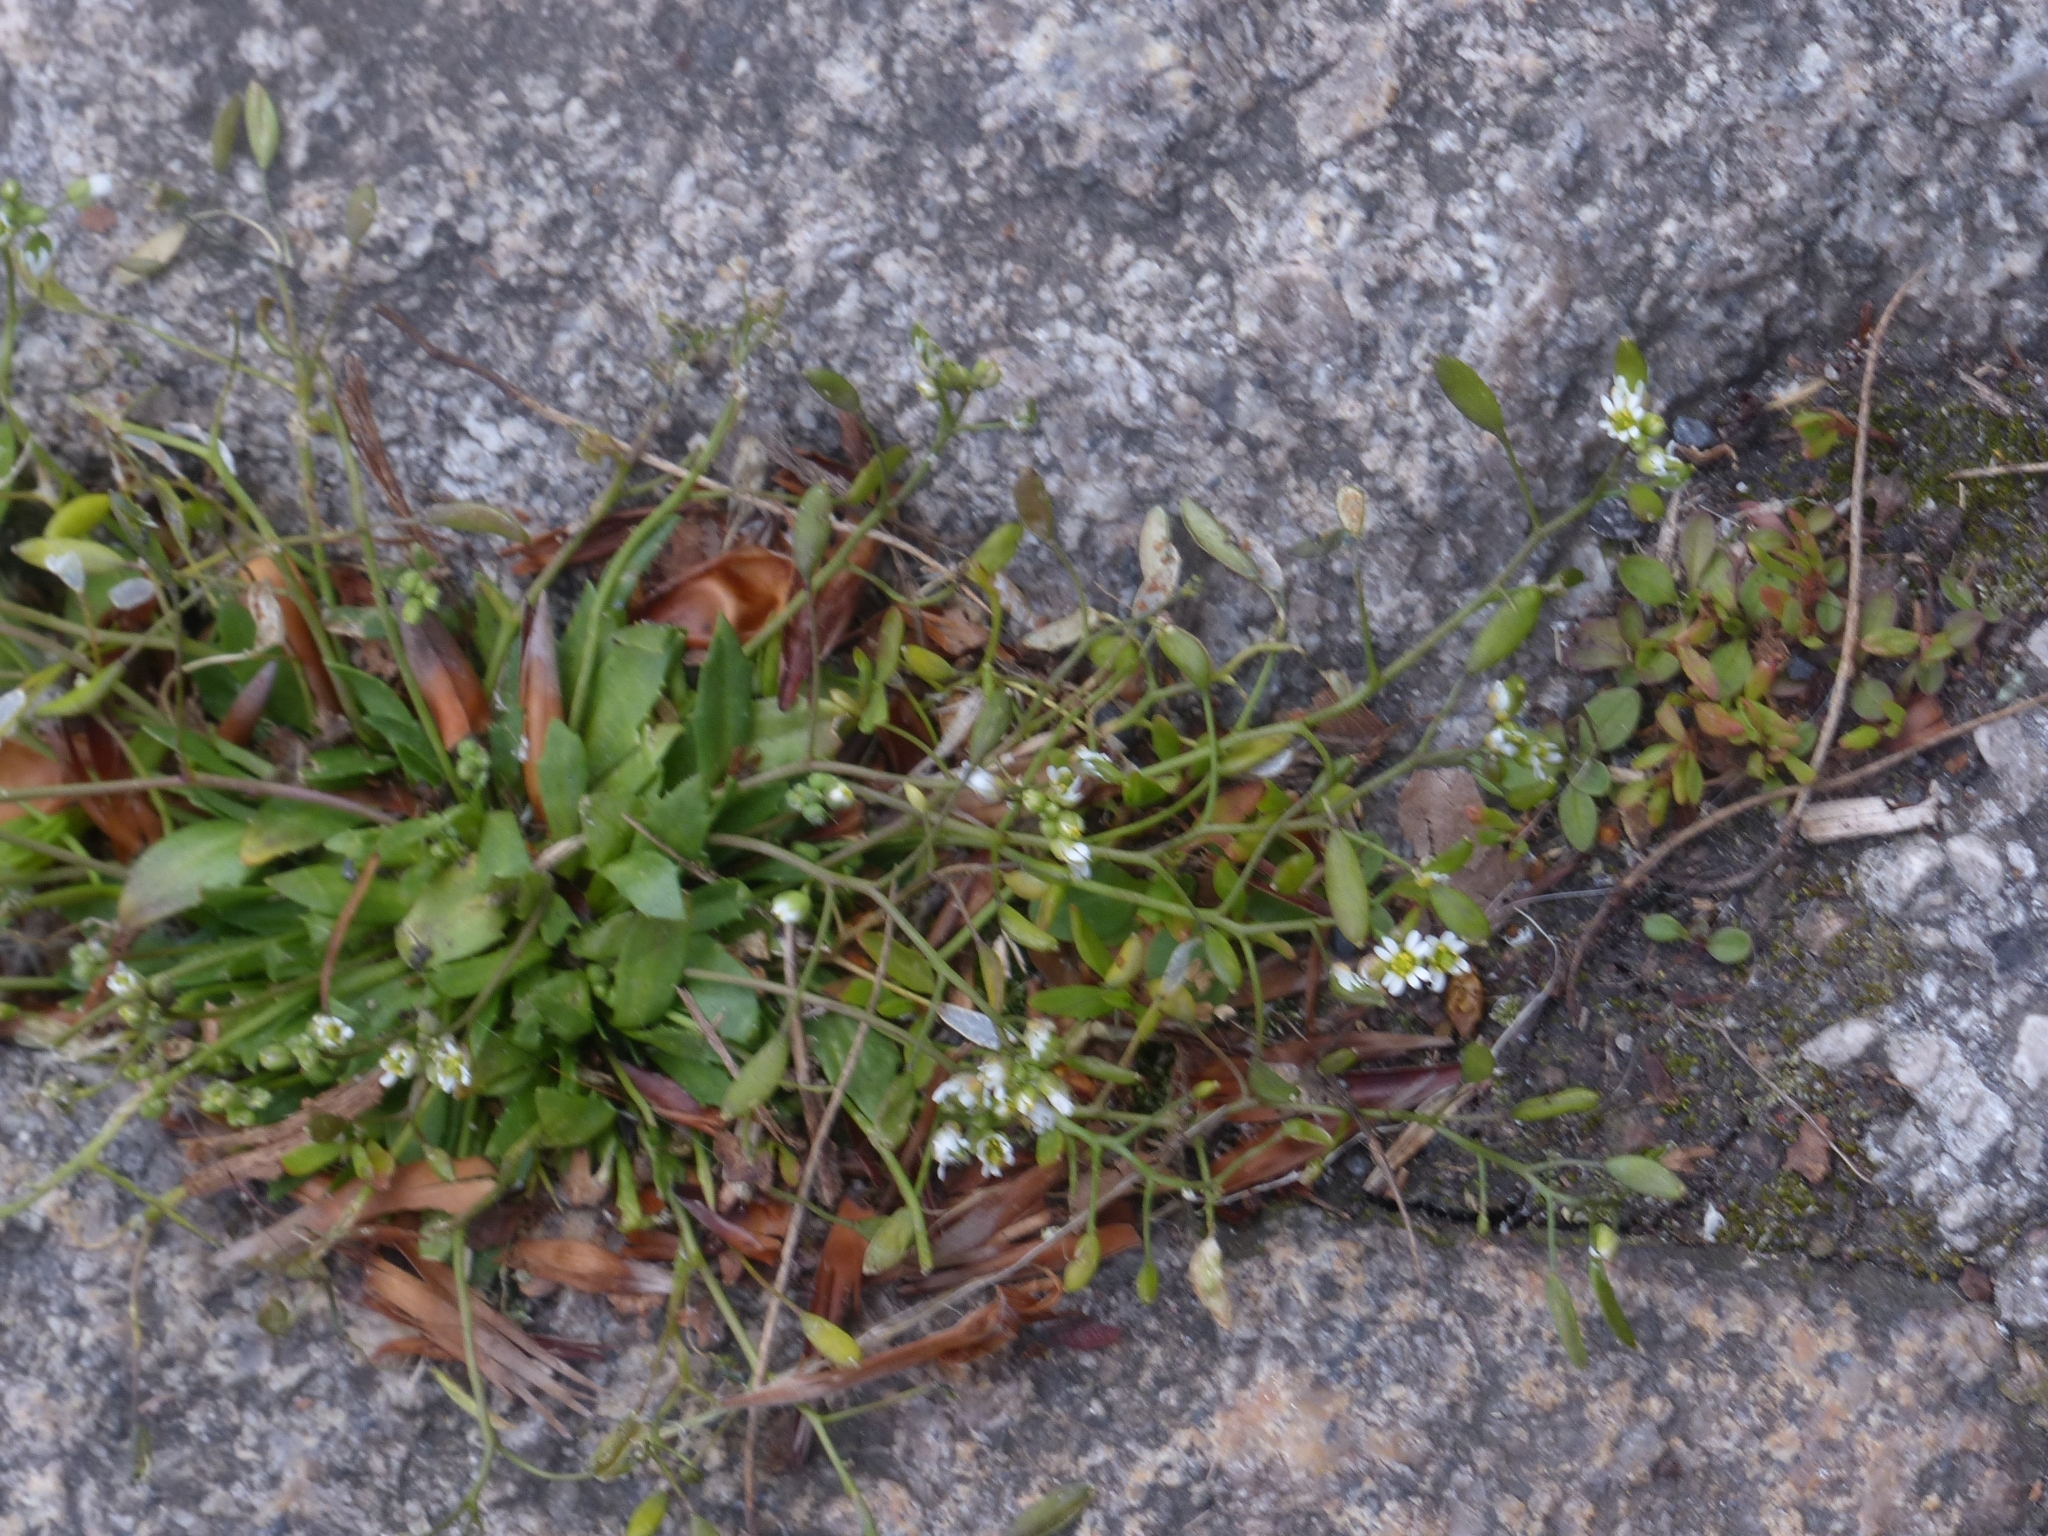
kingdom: Plantae
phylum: Tracheophyta
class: Magnoliopsida
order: Brassicales
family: Brassicaceae
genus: Draba
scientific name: Draba verna
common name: Spring draba
